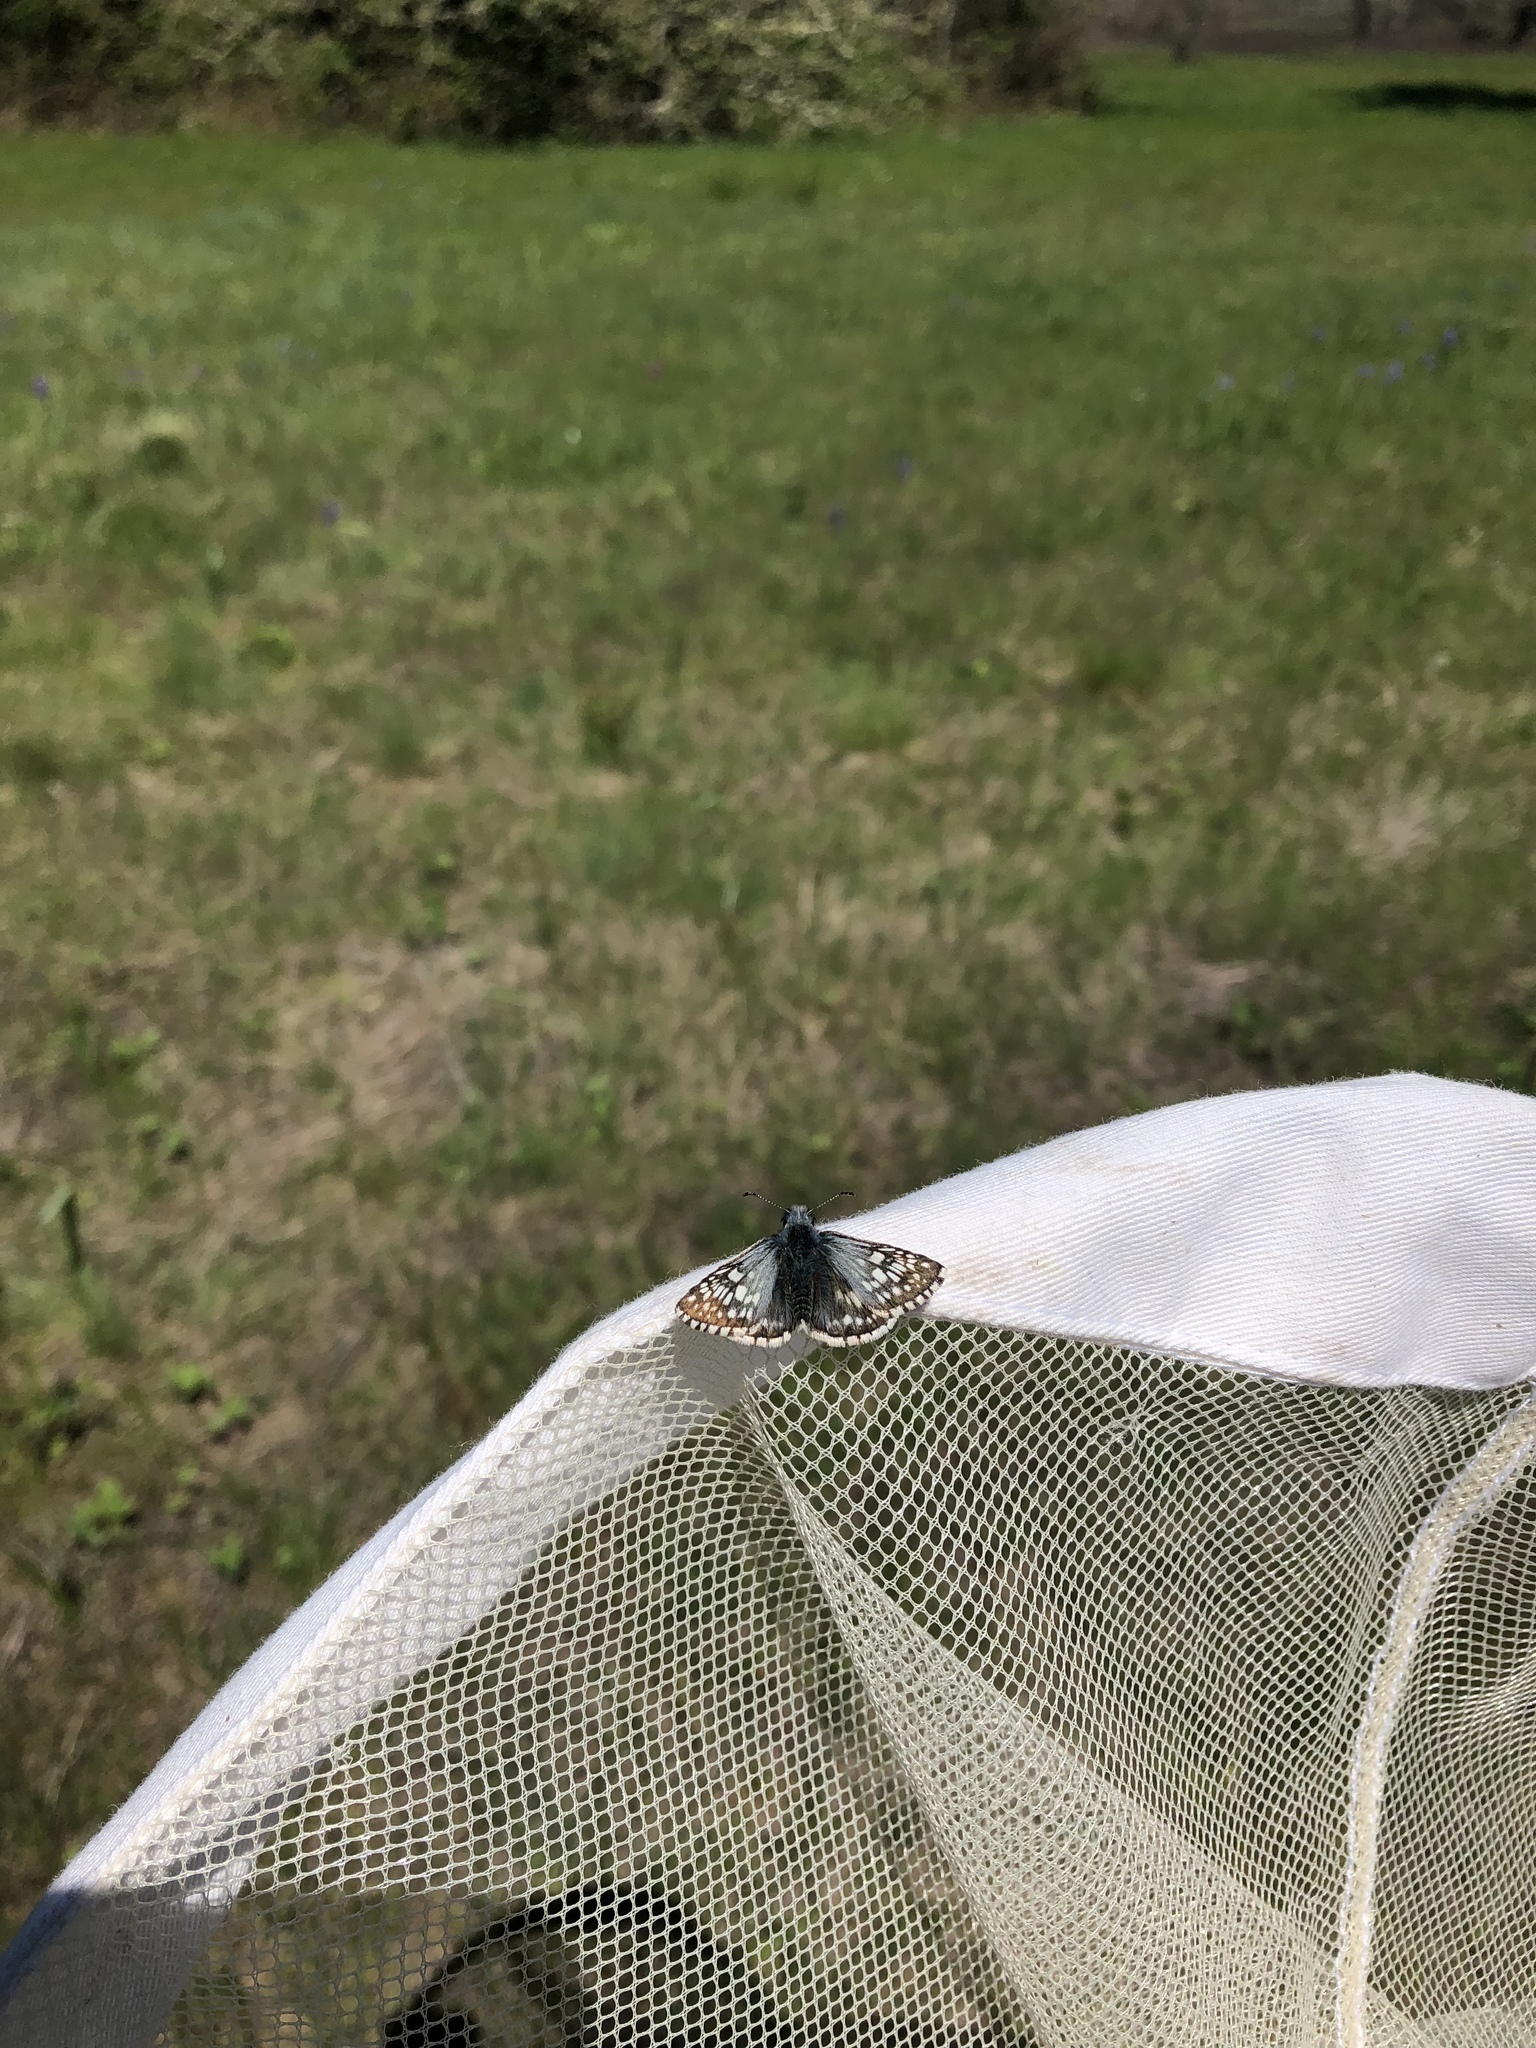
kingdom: Animalia
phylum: Arthropoda
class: Insecta
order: Lepidoptera
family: Hesperiidae
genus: Burnsius
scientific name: Burnsius communis
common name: Common checkered-skipper
